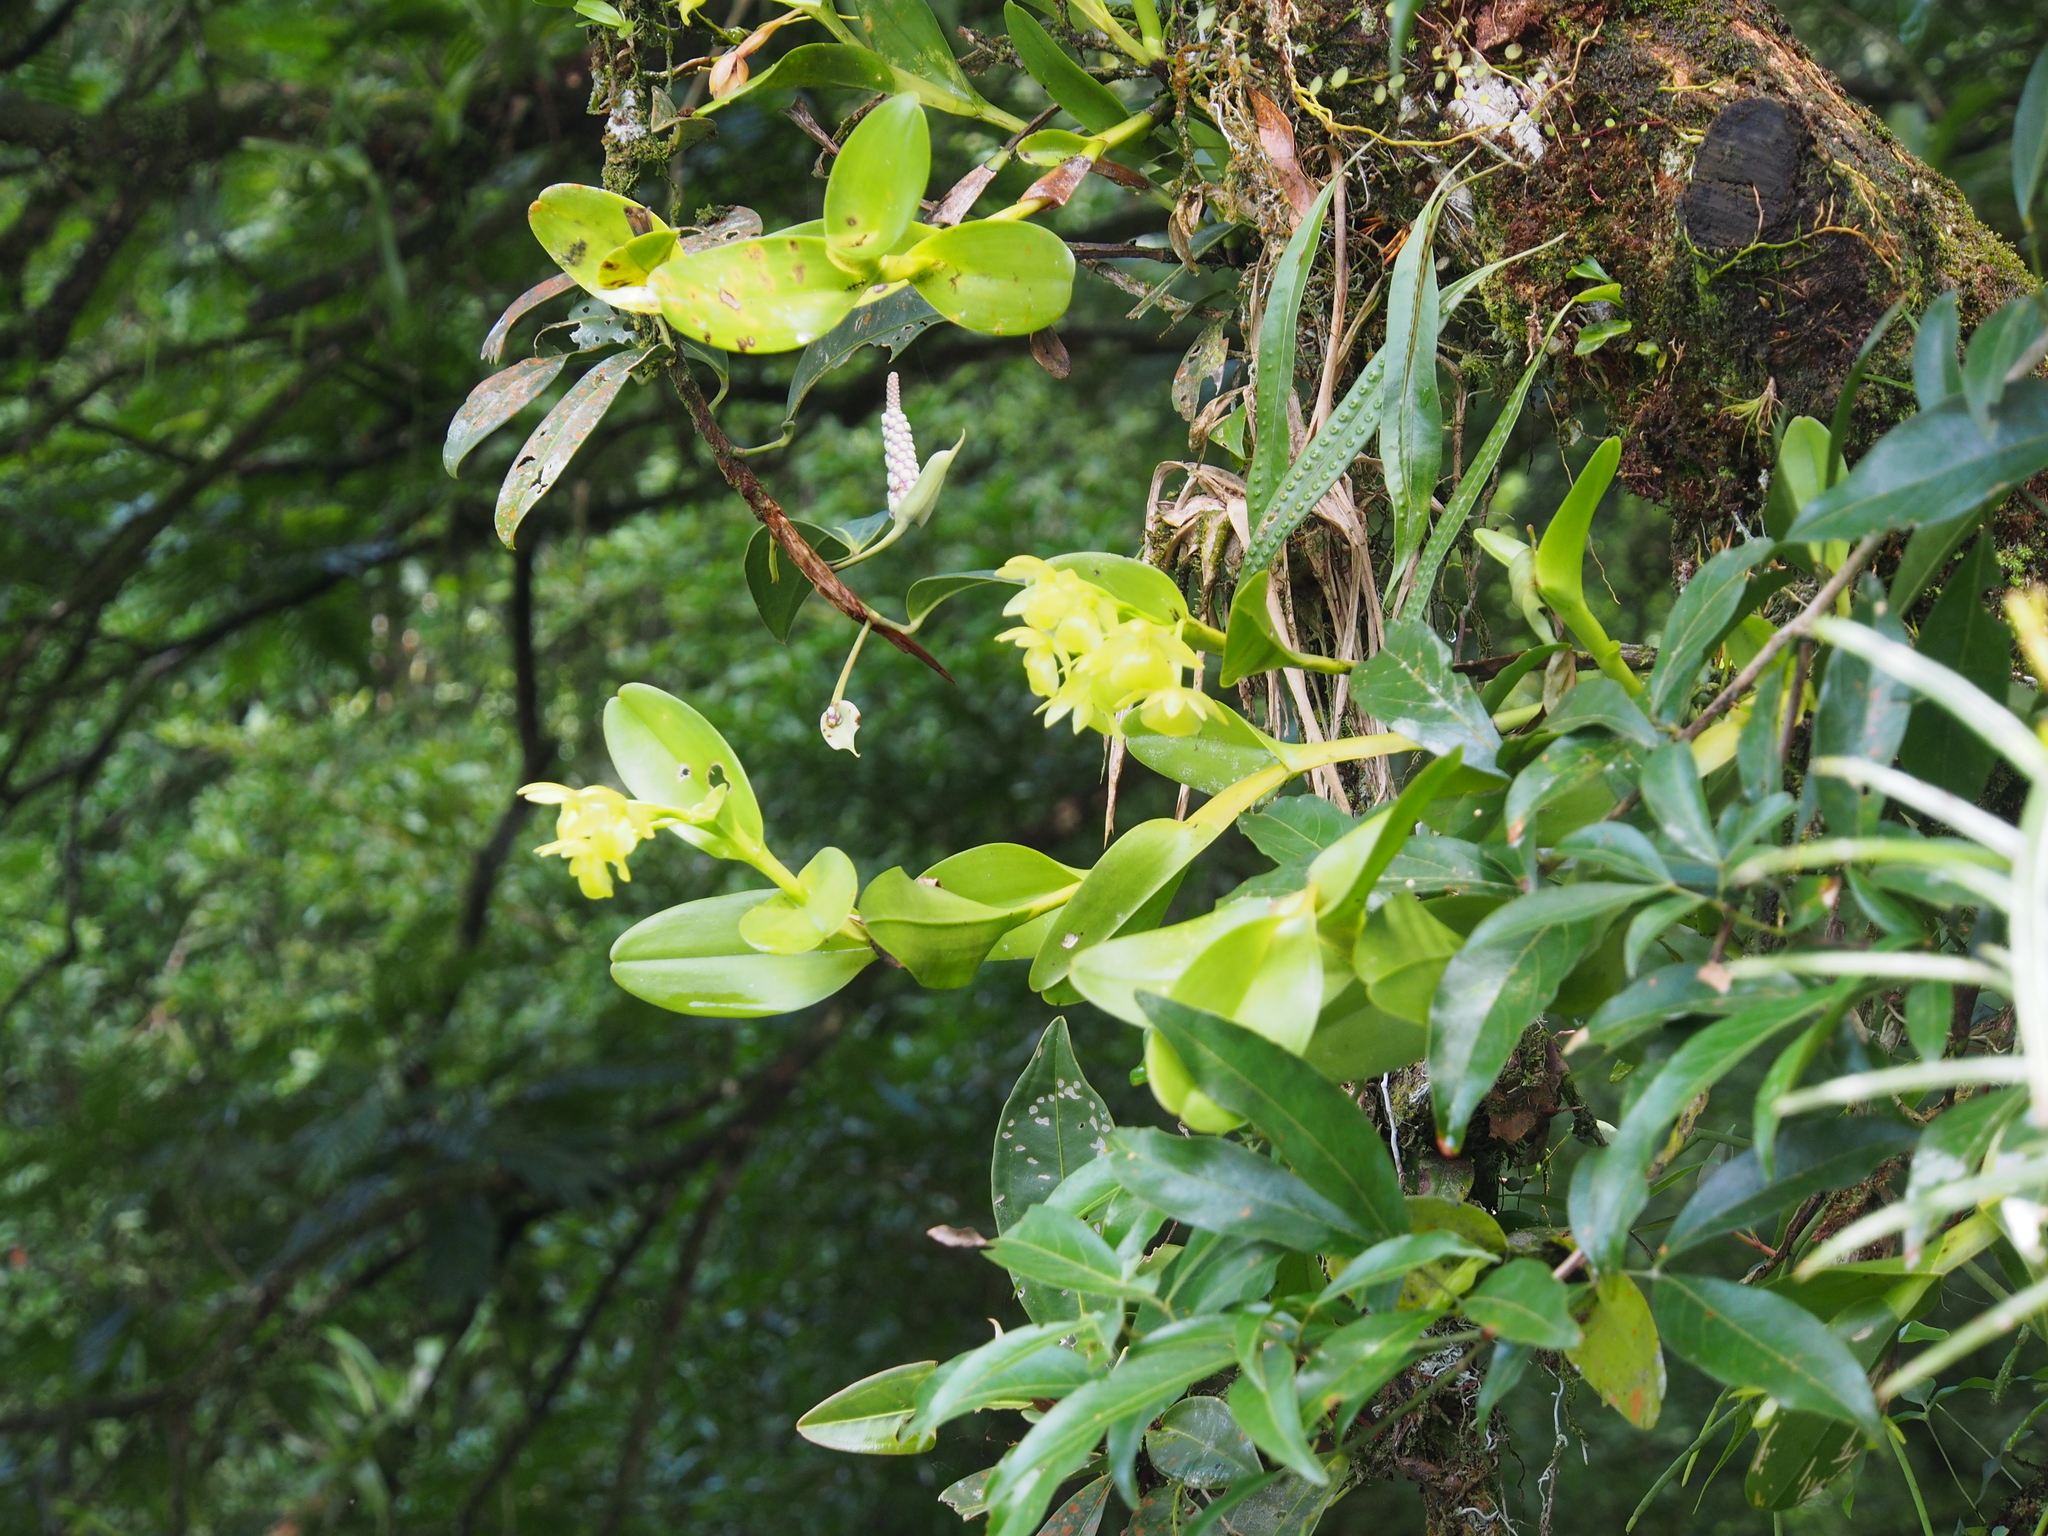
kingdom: Plantae
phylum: Tracheophyta
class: Liliopsida
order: Asparagales
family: Orchidaceae
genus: Epidendrum
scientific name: Epidendrum hunterianum
